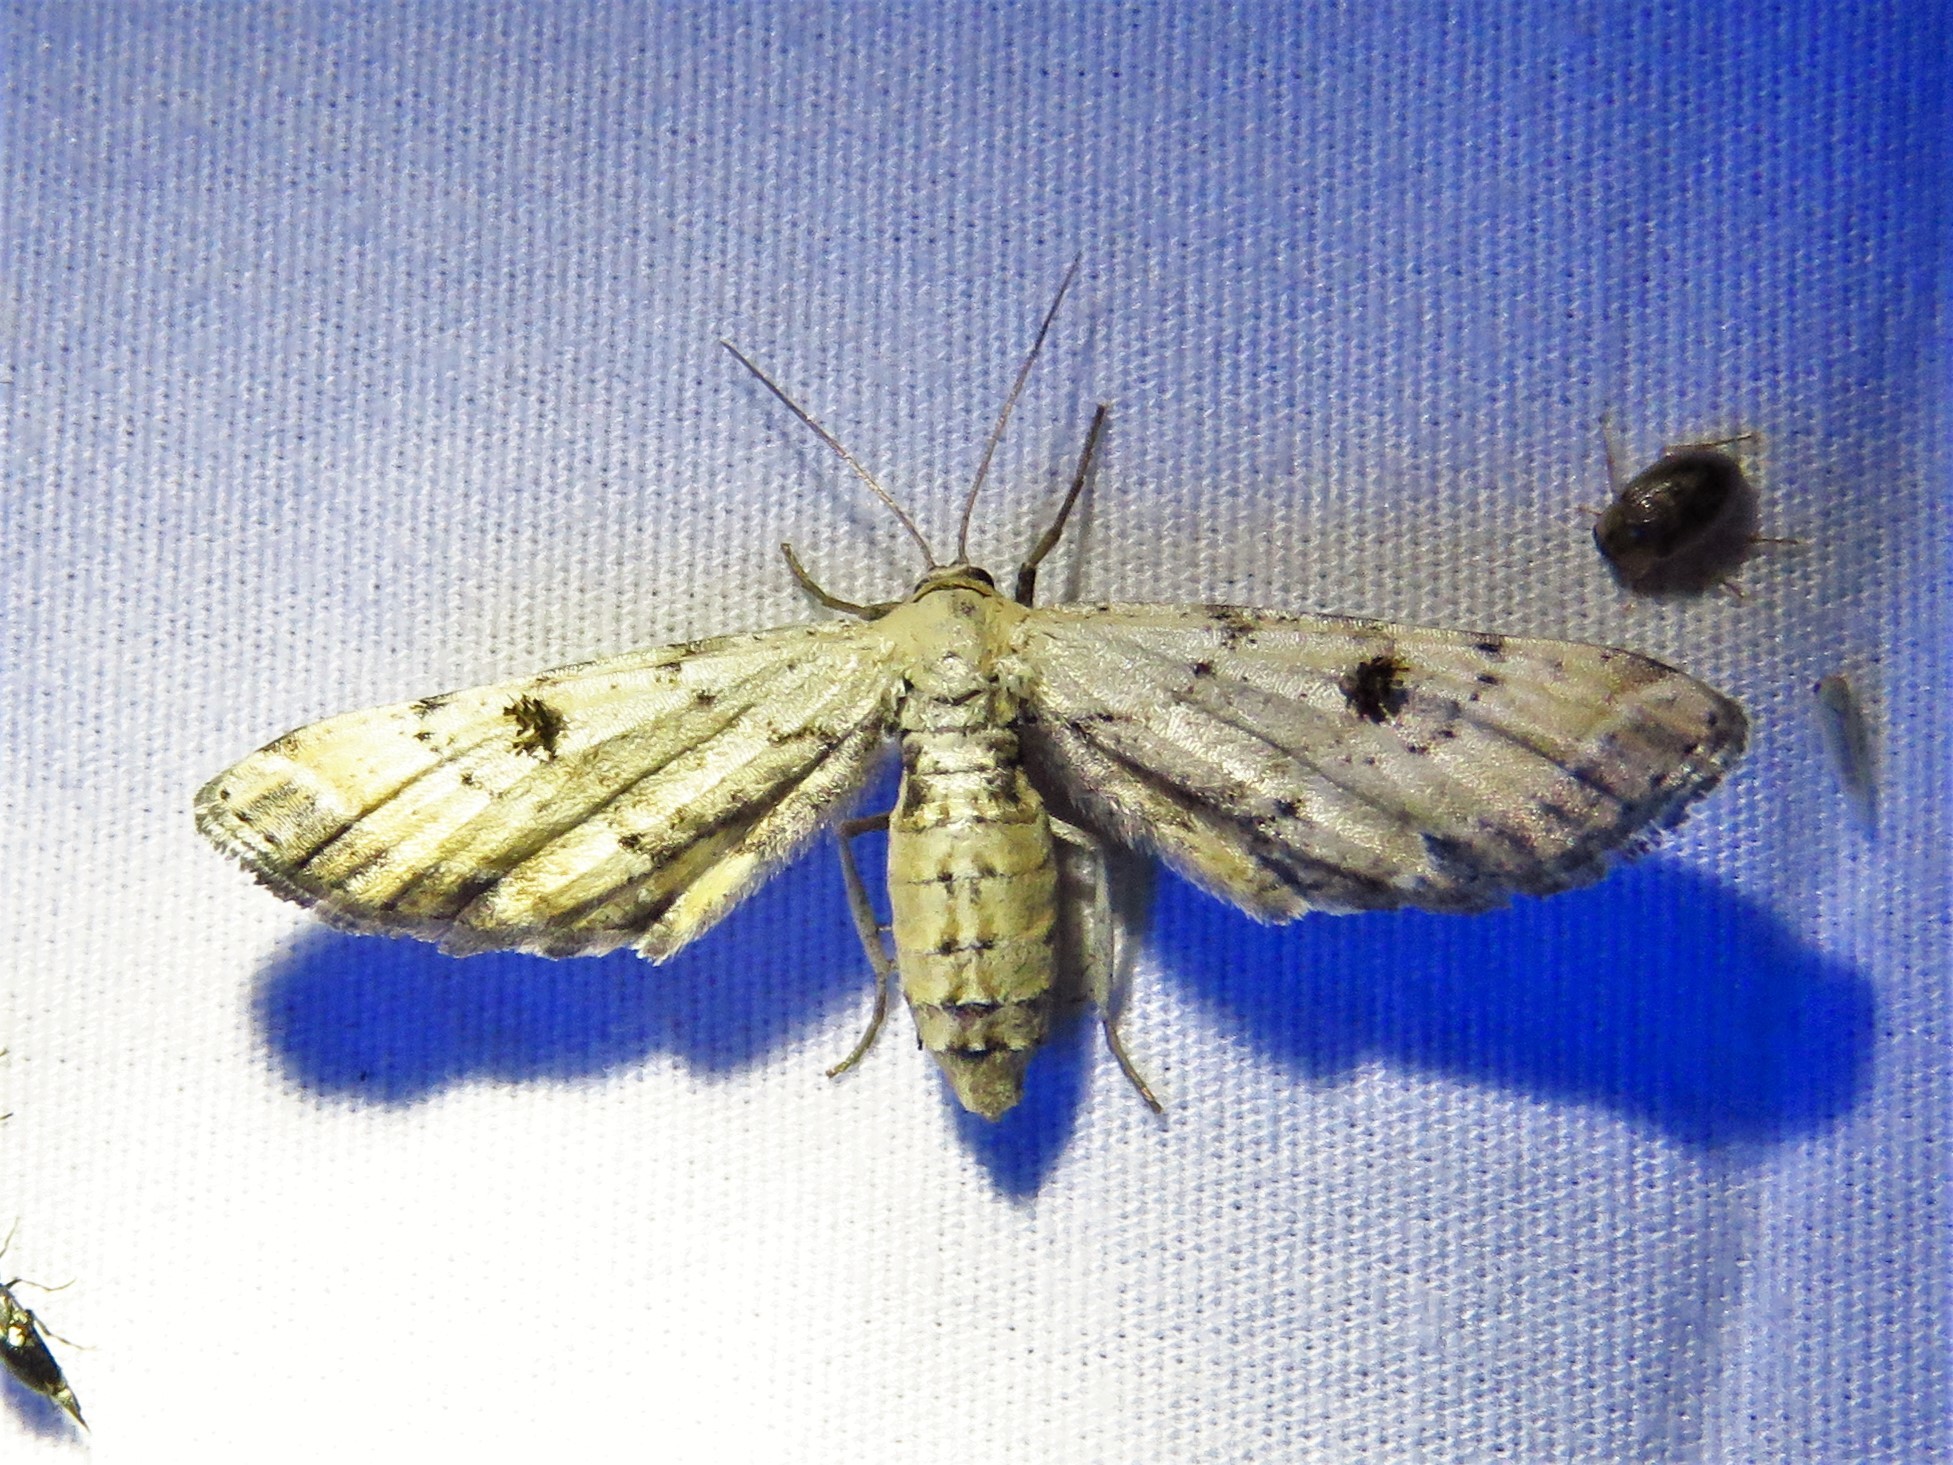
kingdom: Animalia
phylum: Arthropoda
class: Insecta
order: Lepidoptera
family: Geometridae
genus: Tornos
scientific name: Tornos scolopacinaria
